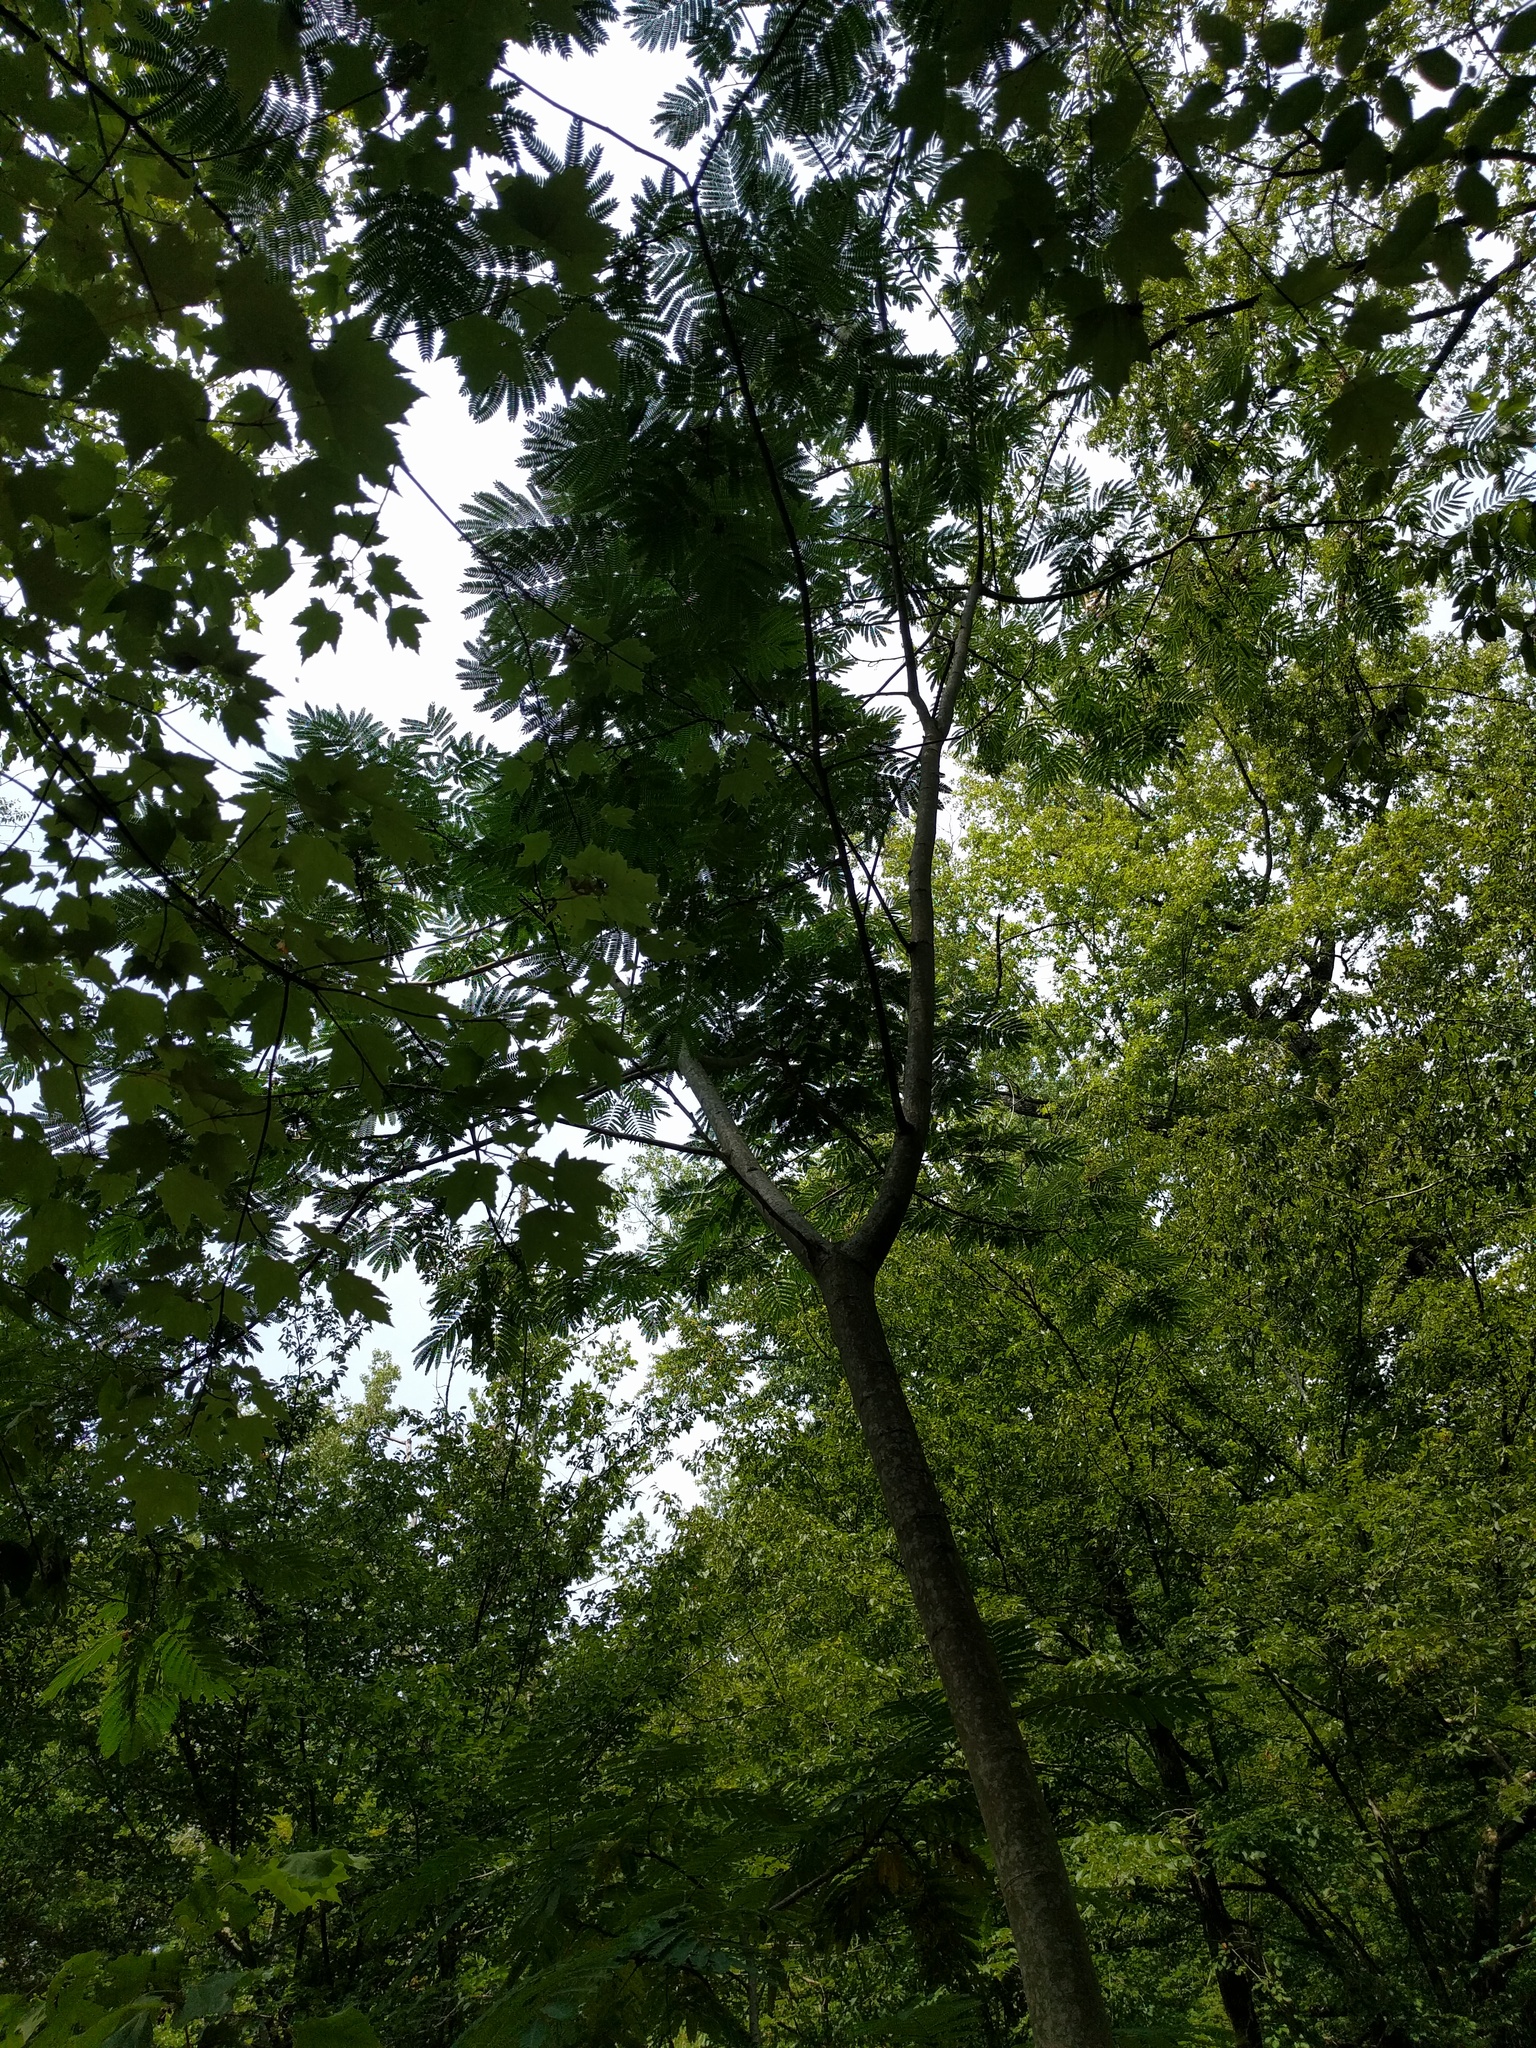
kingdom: Plantae
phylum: Tracheophyta
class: Magnoliopsida
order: Fabales
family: Fabaceae
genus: Albizia
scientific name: Albizia julibrissin
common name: Silktree
